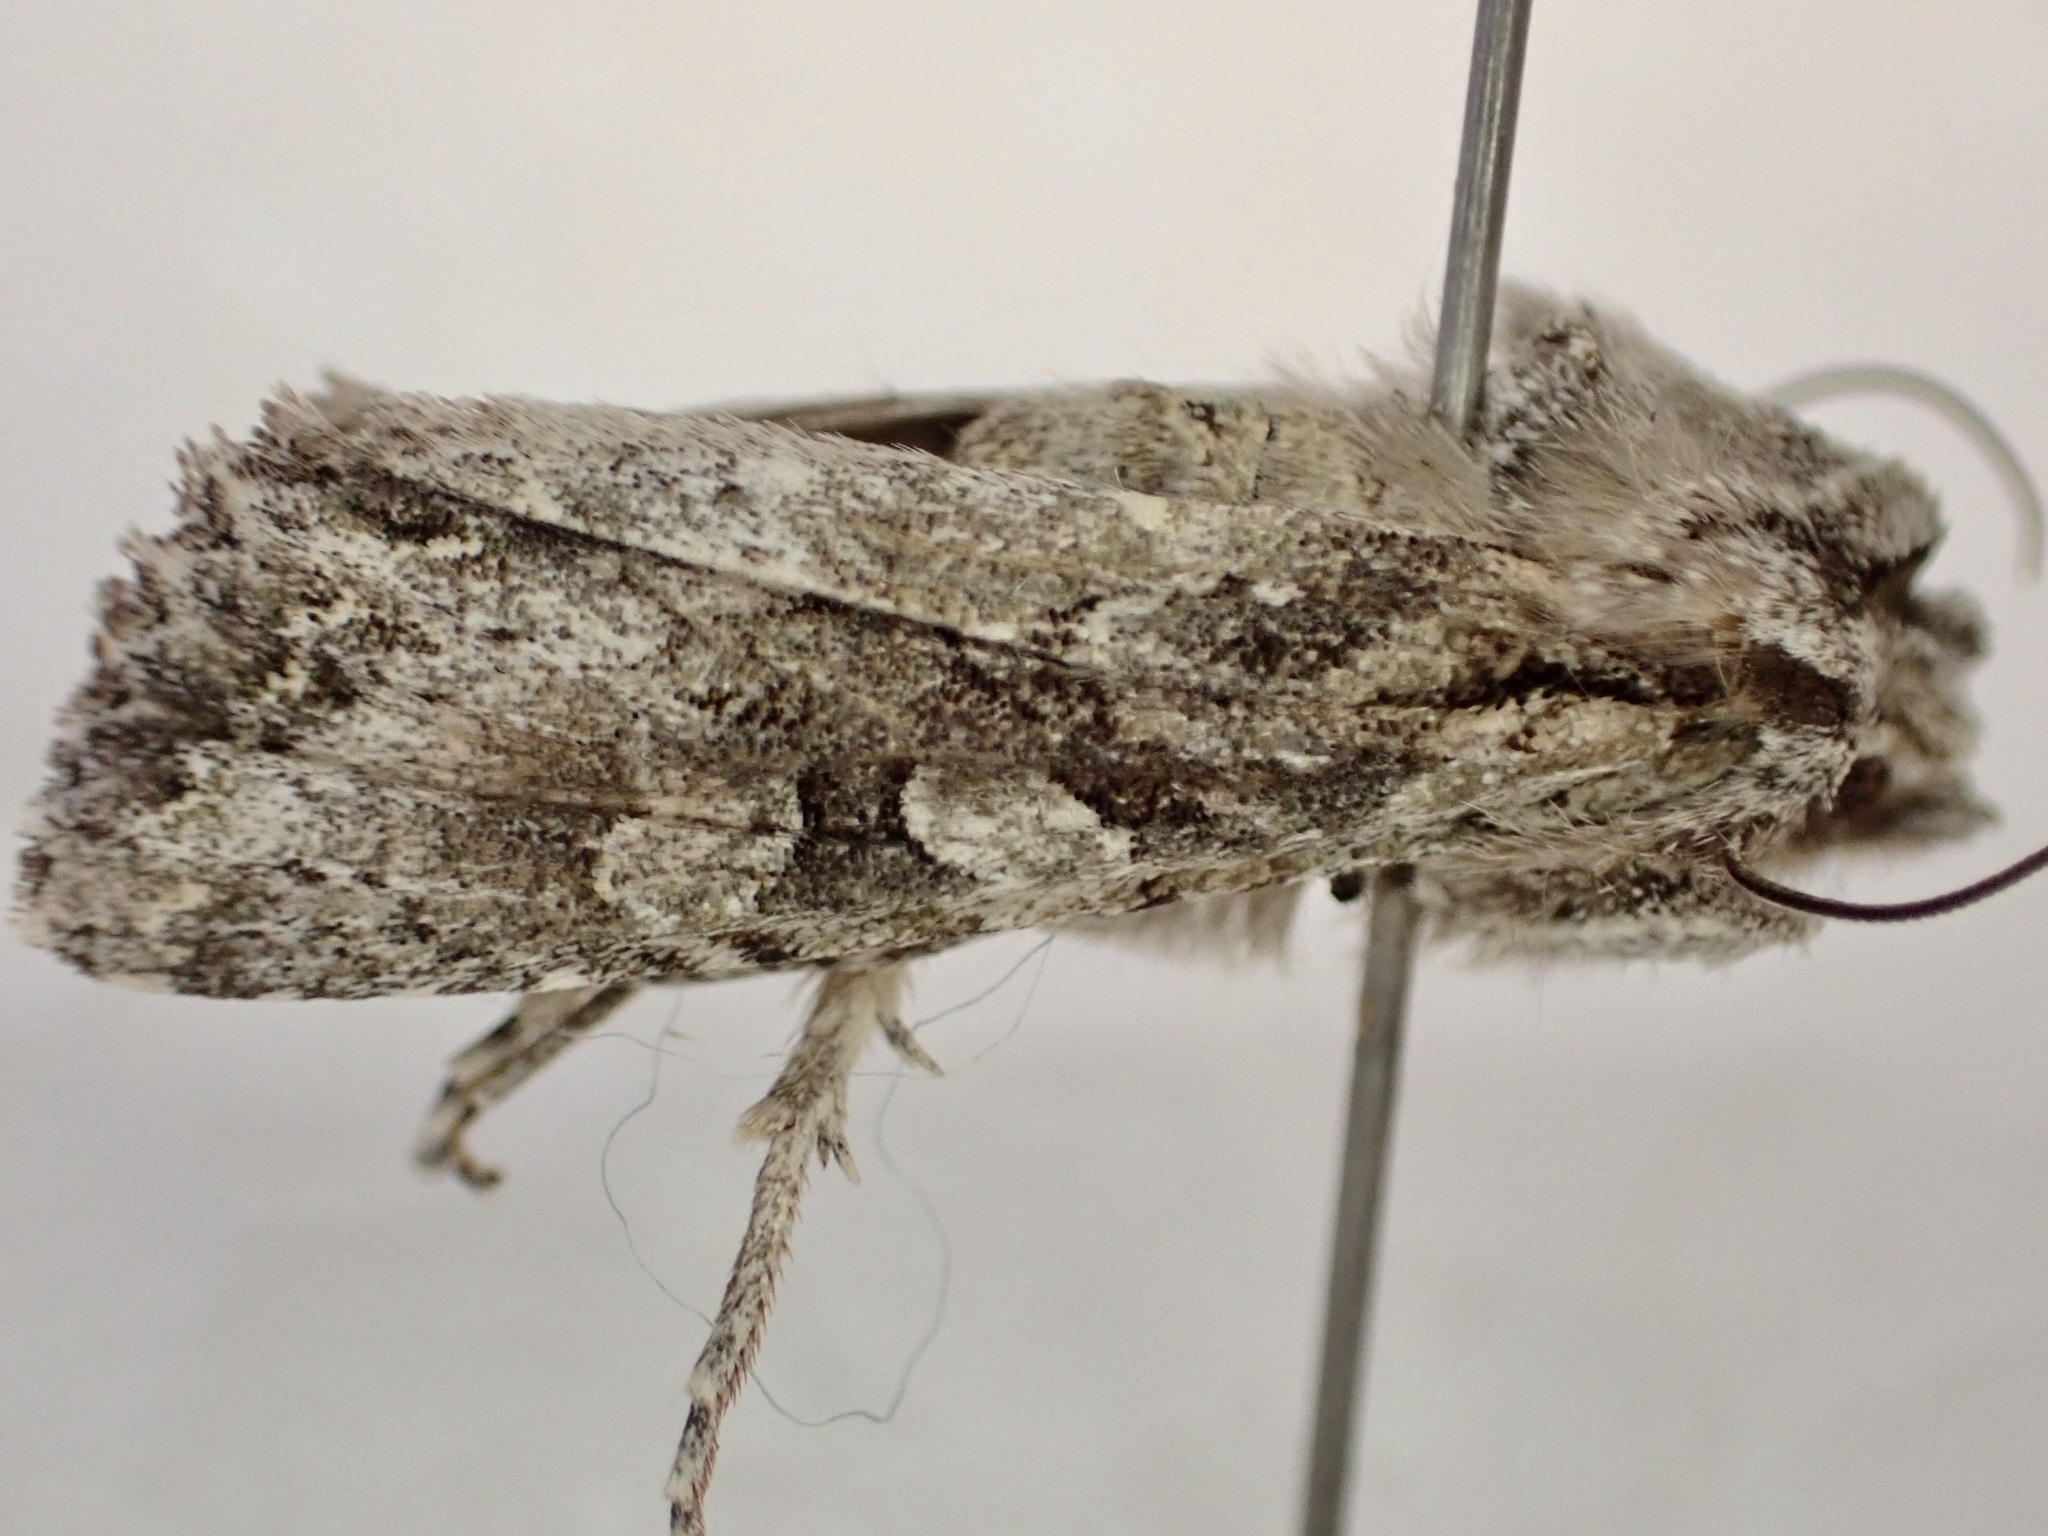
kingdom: Animalia
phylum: Arthropoda
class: Insecta
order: Lepidoptera
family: Noctuidae
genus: Ichneutica
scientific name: Ichneutica mutans
